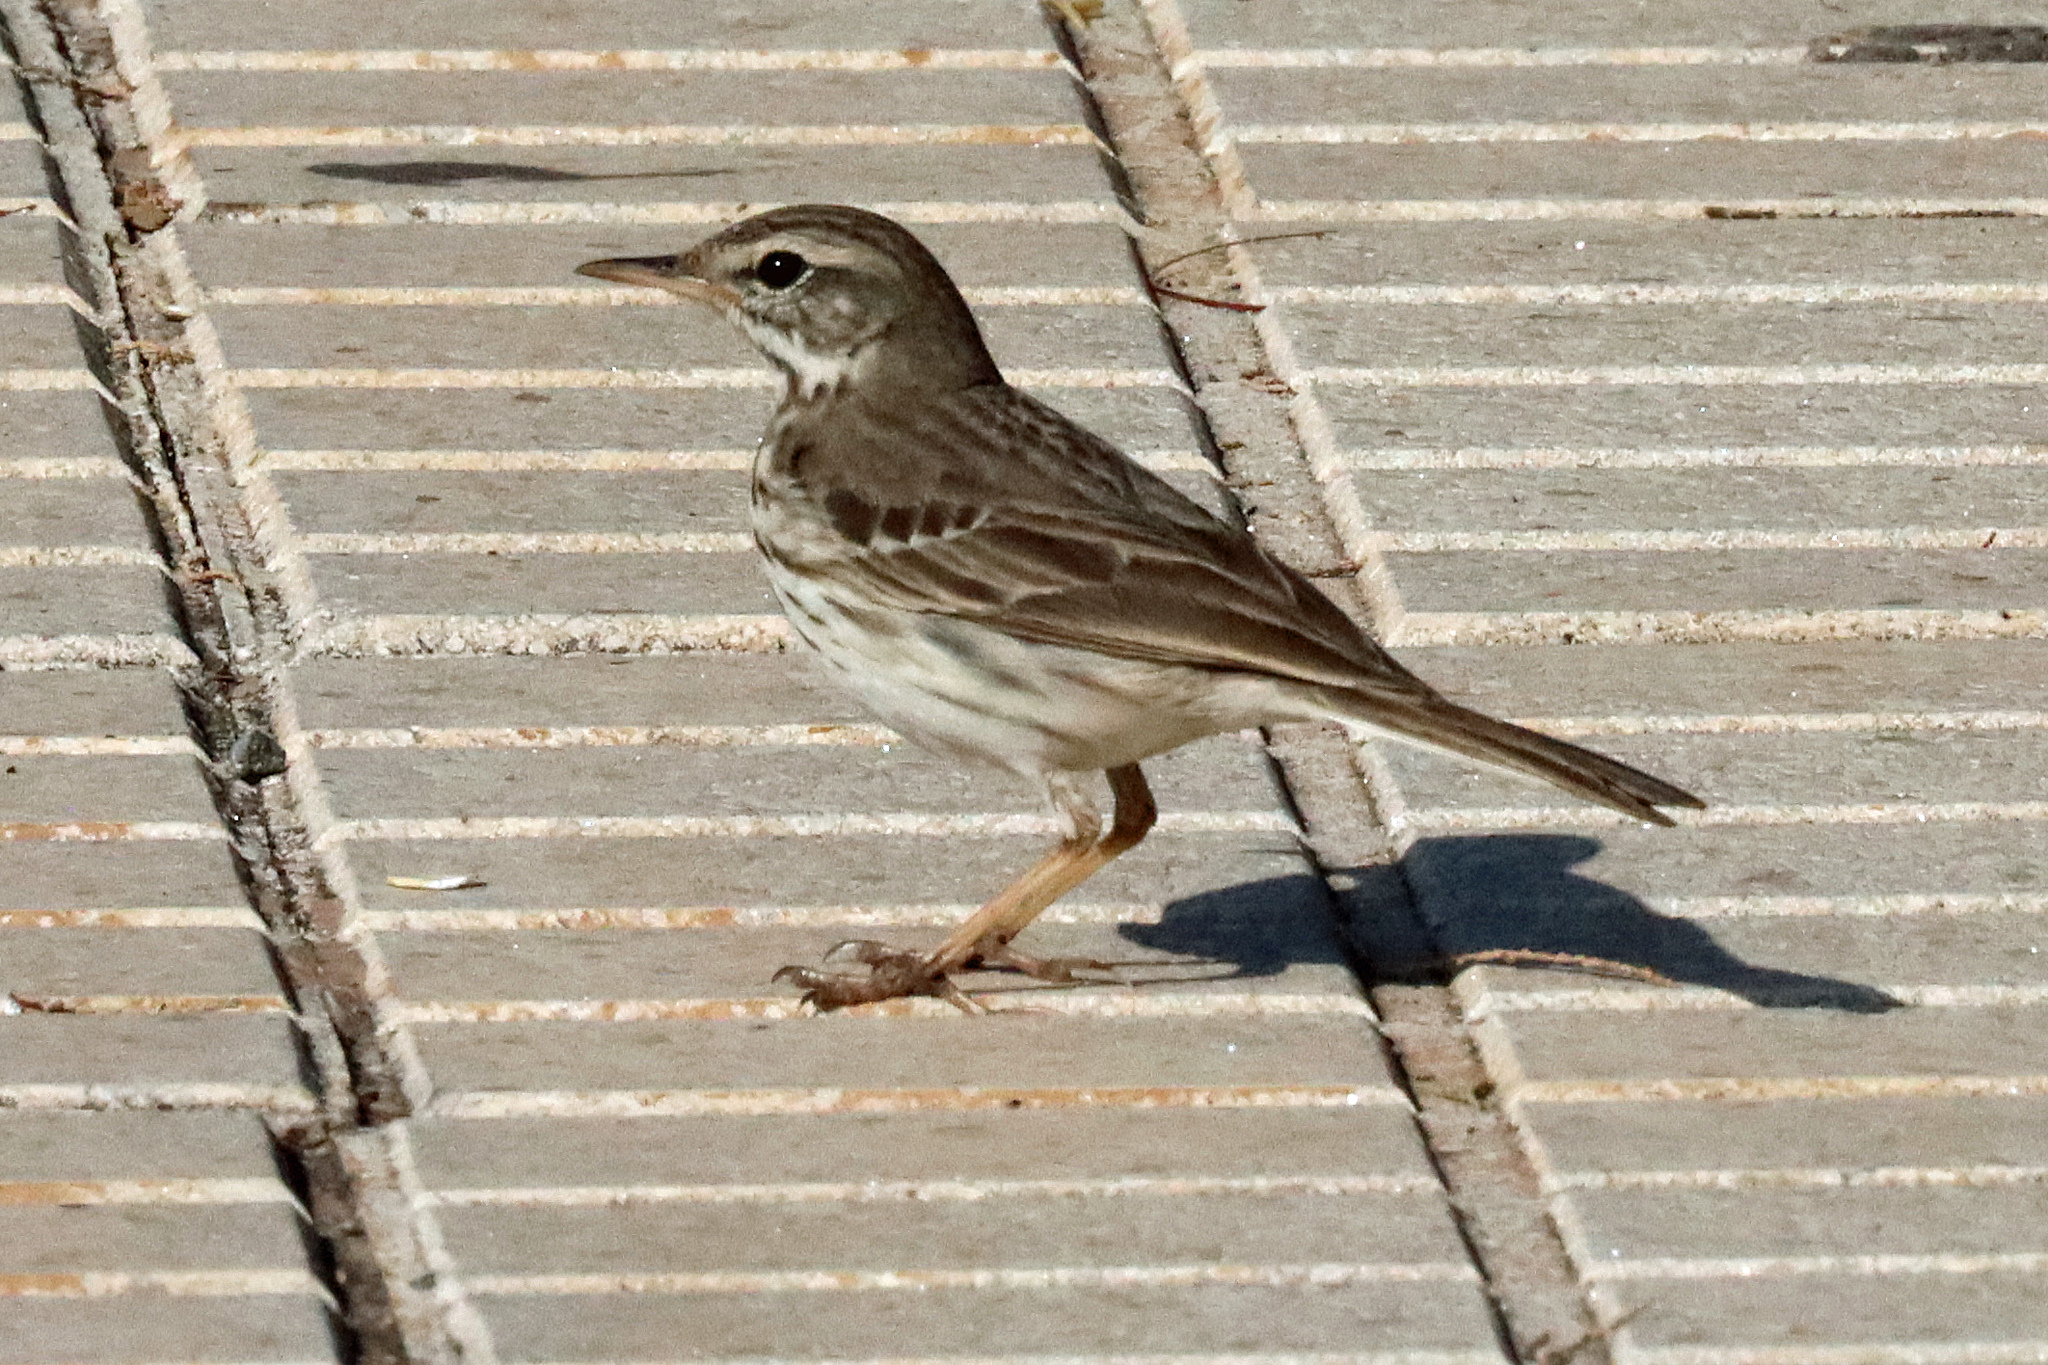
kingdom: Animalia
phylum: Chordata
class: Aves
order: Passeriformes
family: Motacillidae
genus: Anthus
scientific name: Anthus berthelotii
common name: Berthelot's pipit
